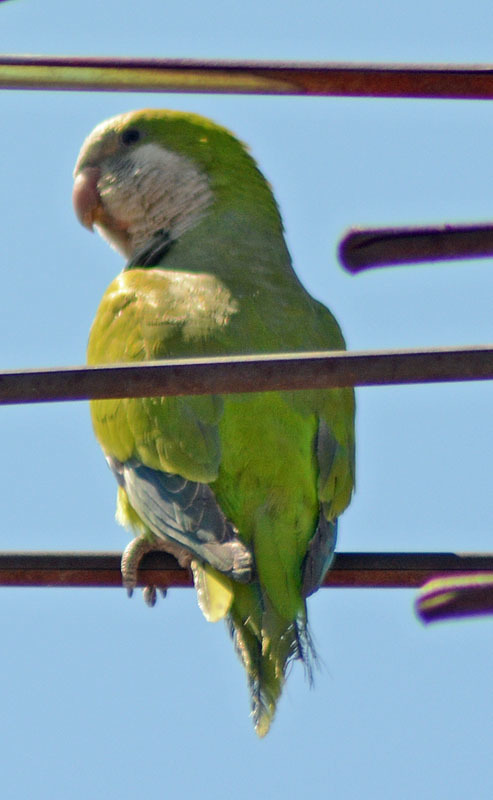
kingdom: Animalia
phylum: Chordata
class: Aves
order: Psittaciformes
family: Psittacidae
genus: Myiopsitta
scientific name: Myiopsitta monachus
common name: Monk parakeet
